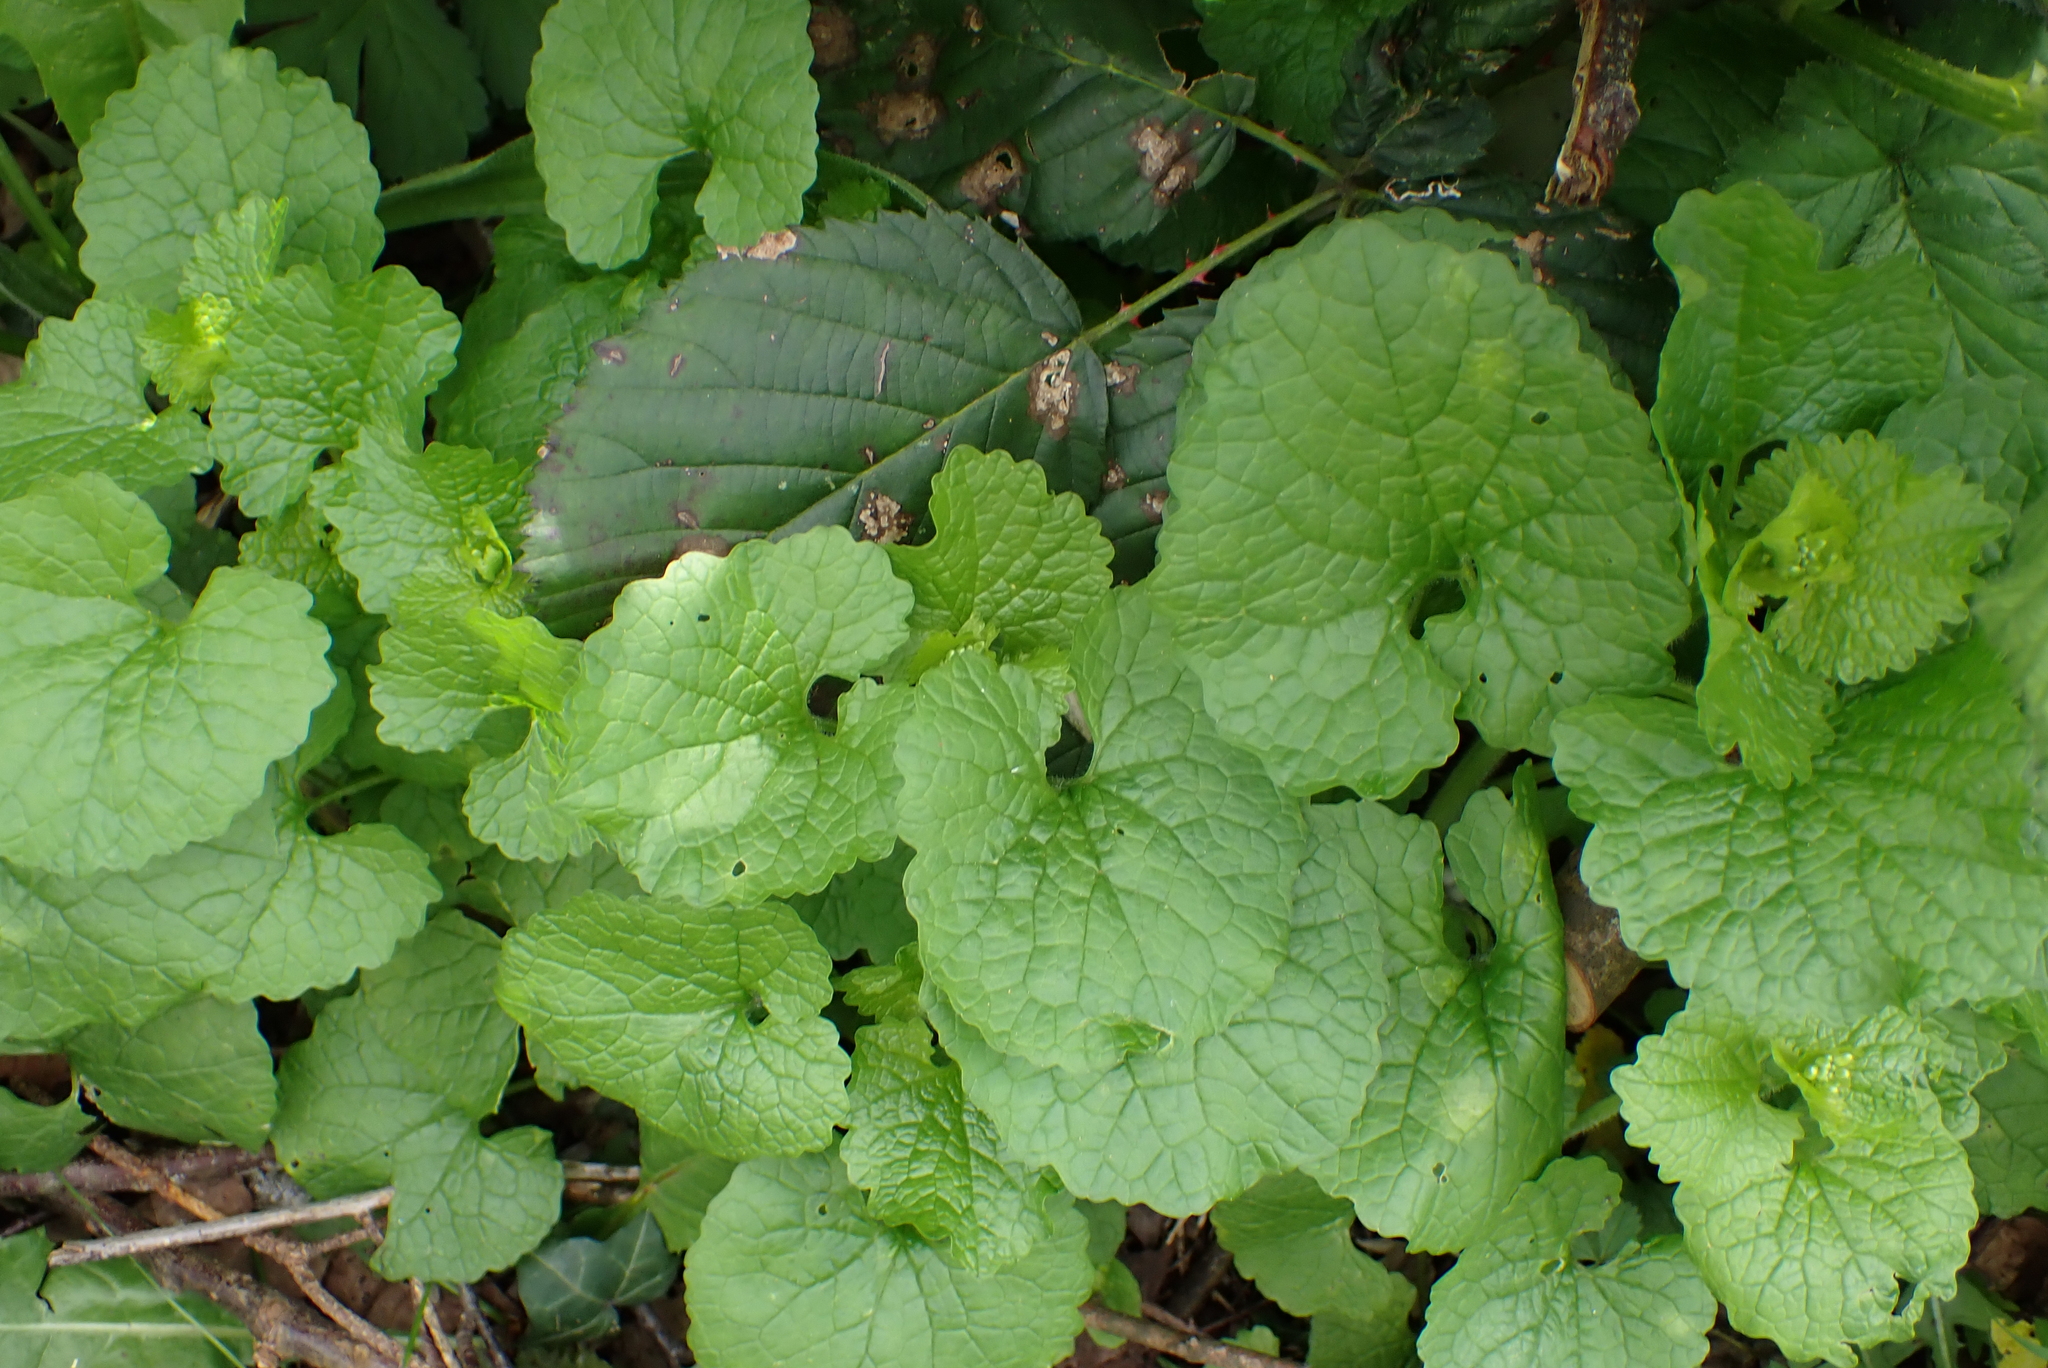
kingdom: Plantae
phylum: Tracheophyta
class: Magnoliopsida
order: Brassicales
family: Brassicaceae
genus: Alliaria
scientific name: Alliaria petiolata
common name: Garlic mustard
